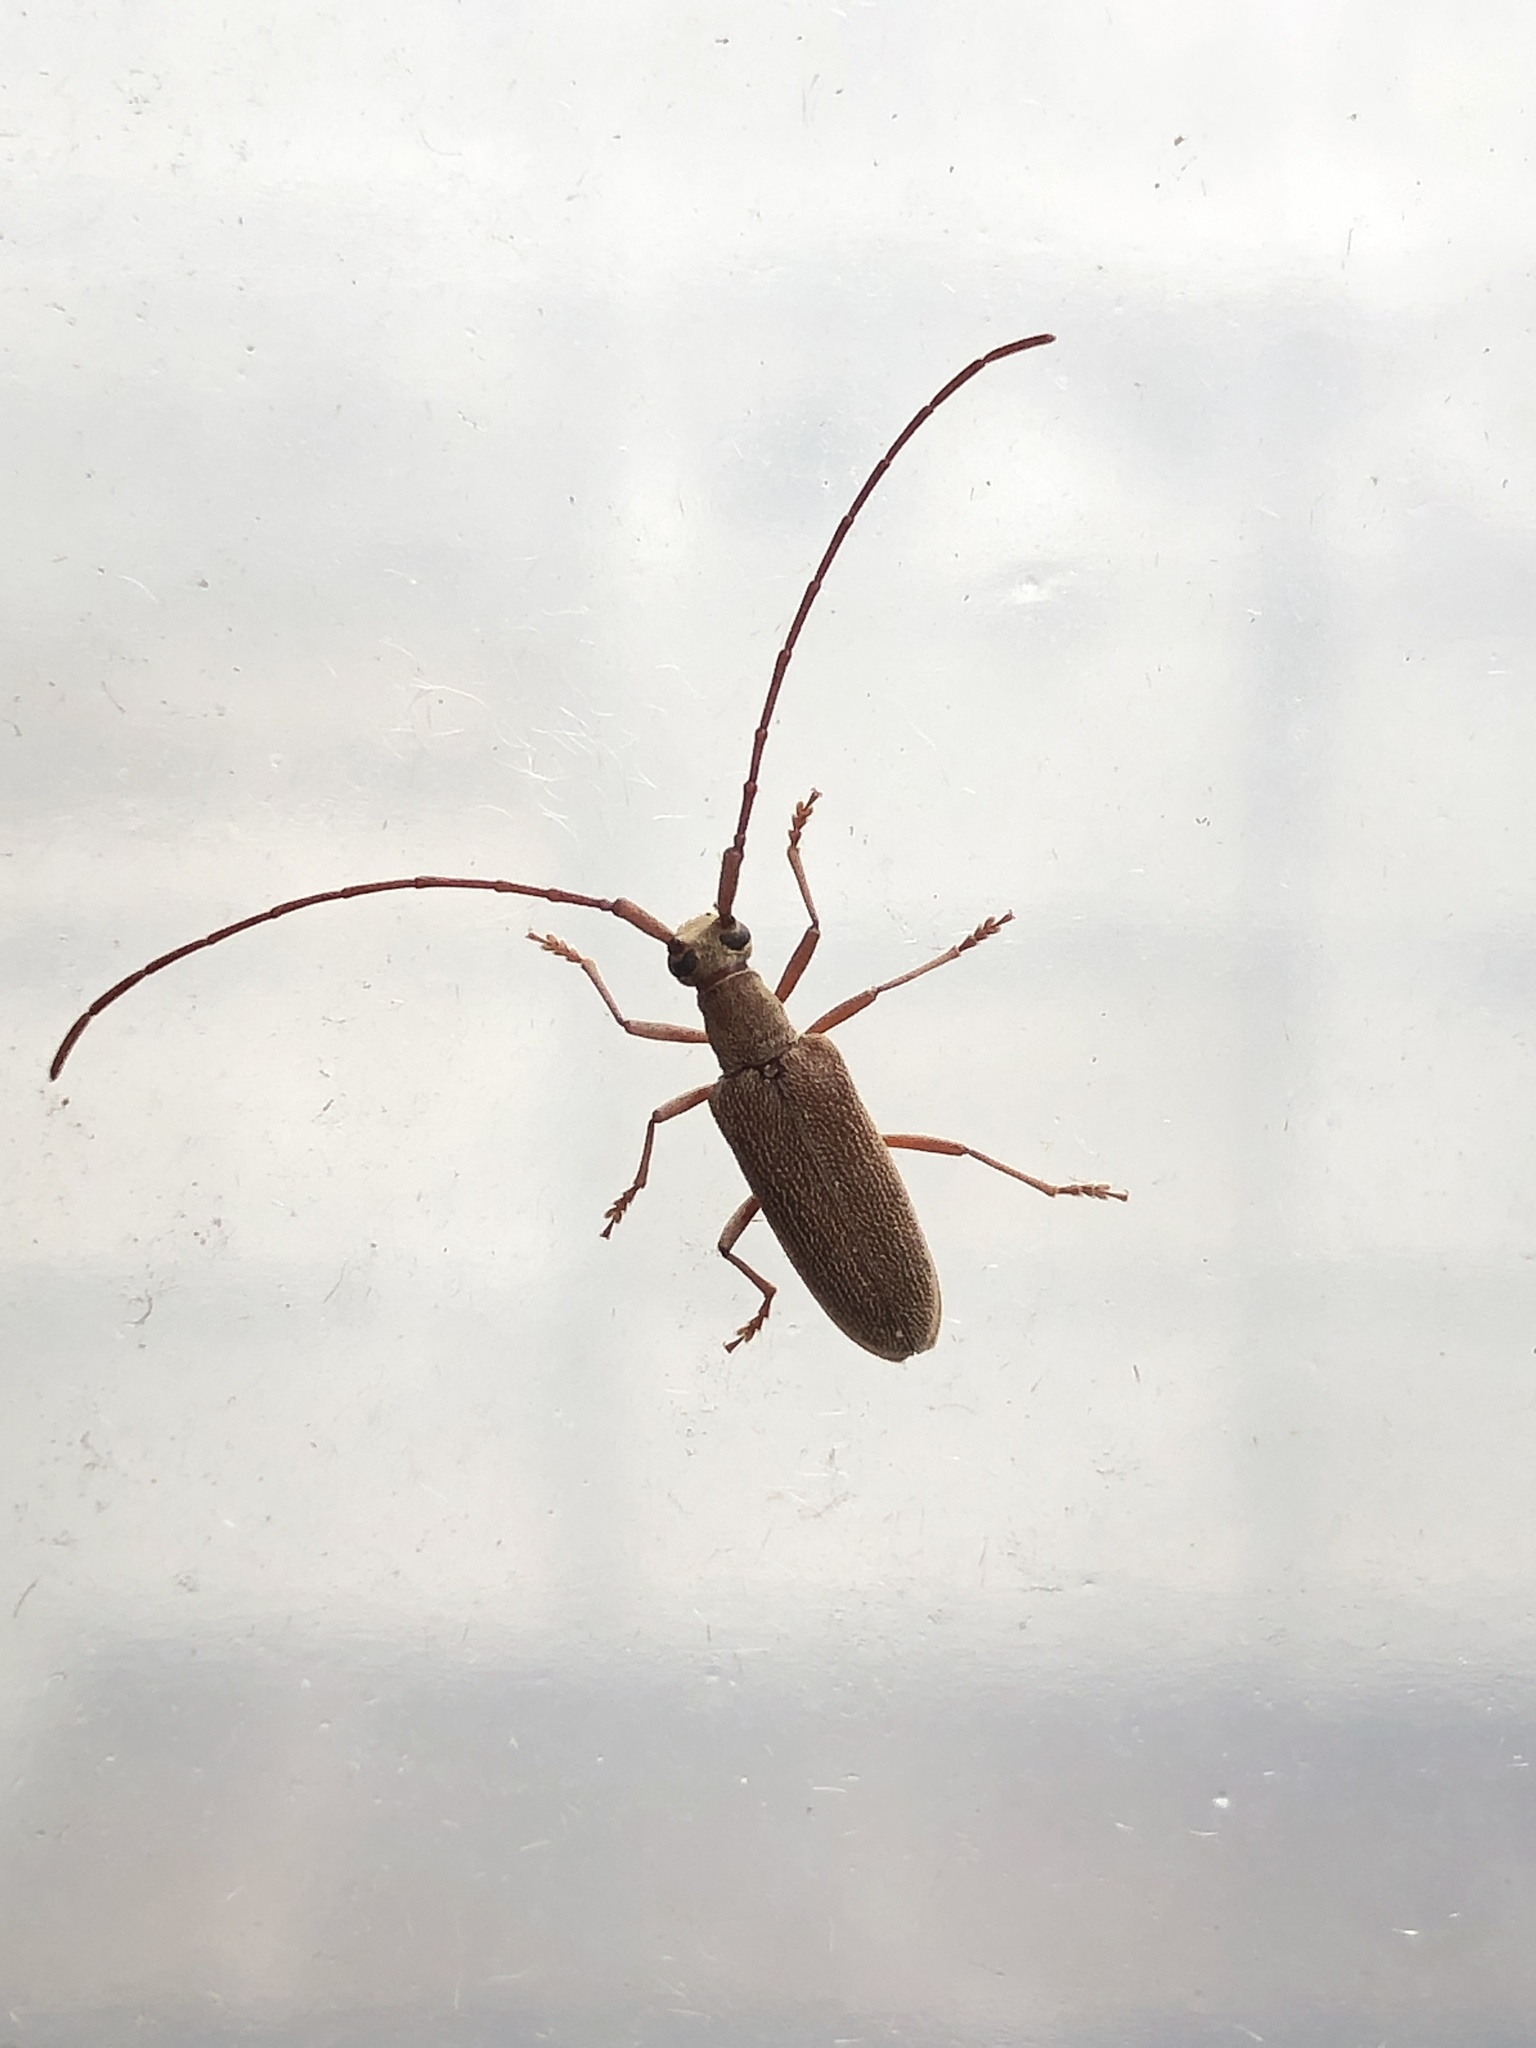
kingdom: Animalia
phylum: Arthropoda
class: Insecta
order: Coleoptera
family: Cerambycidae
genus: Caraphia
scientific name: Caraphia lepturoides
